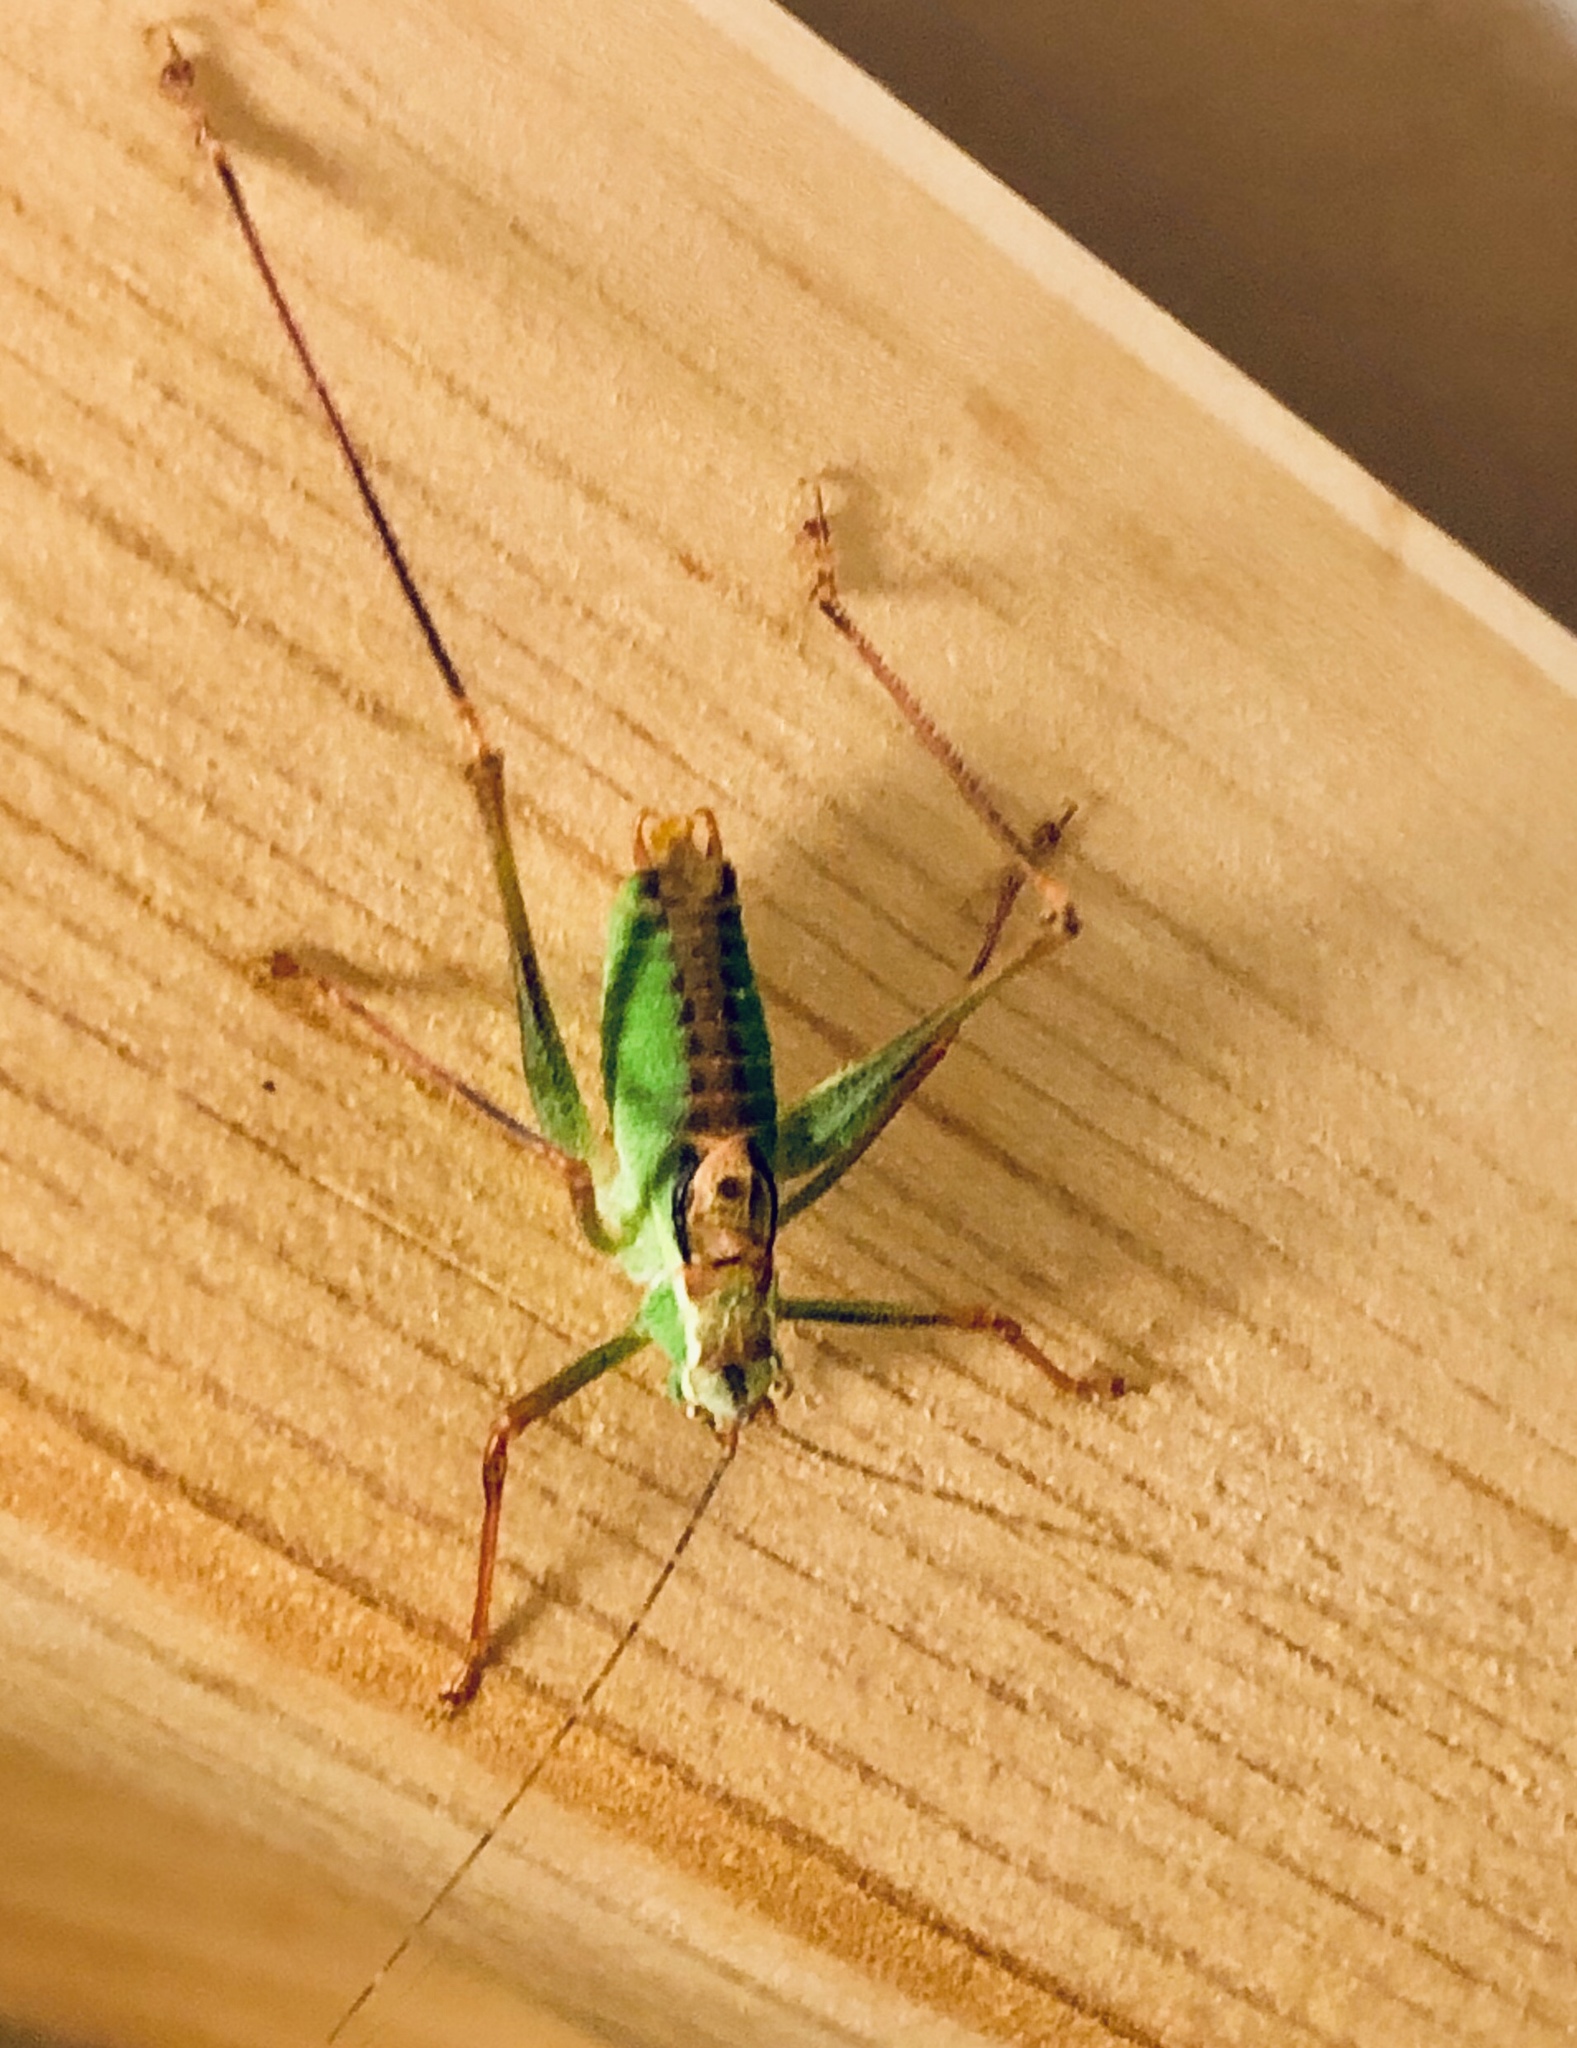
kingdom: Animalia
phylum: Arthropoda
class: Insecta
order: Orthoptera
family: Tettigoniidae
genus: Leptophyes
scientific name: Leptophyes punctatissima
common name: Speckled bush-cricket
